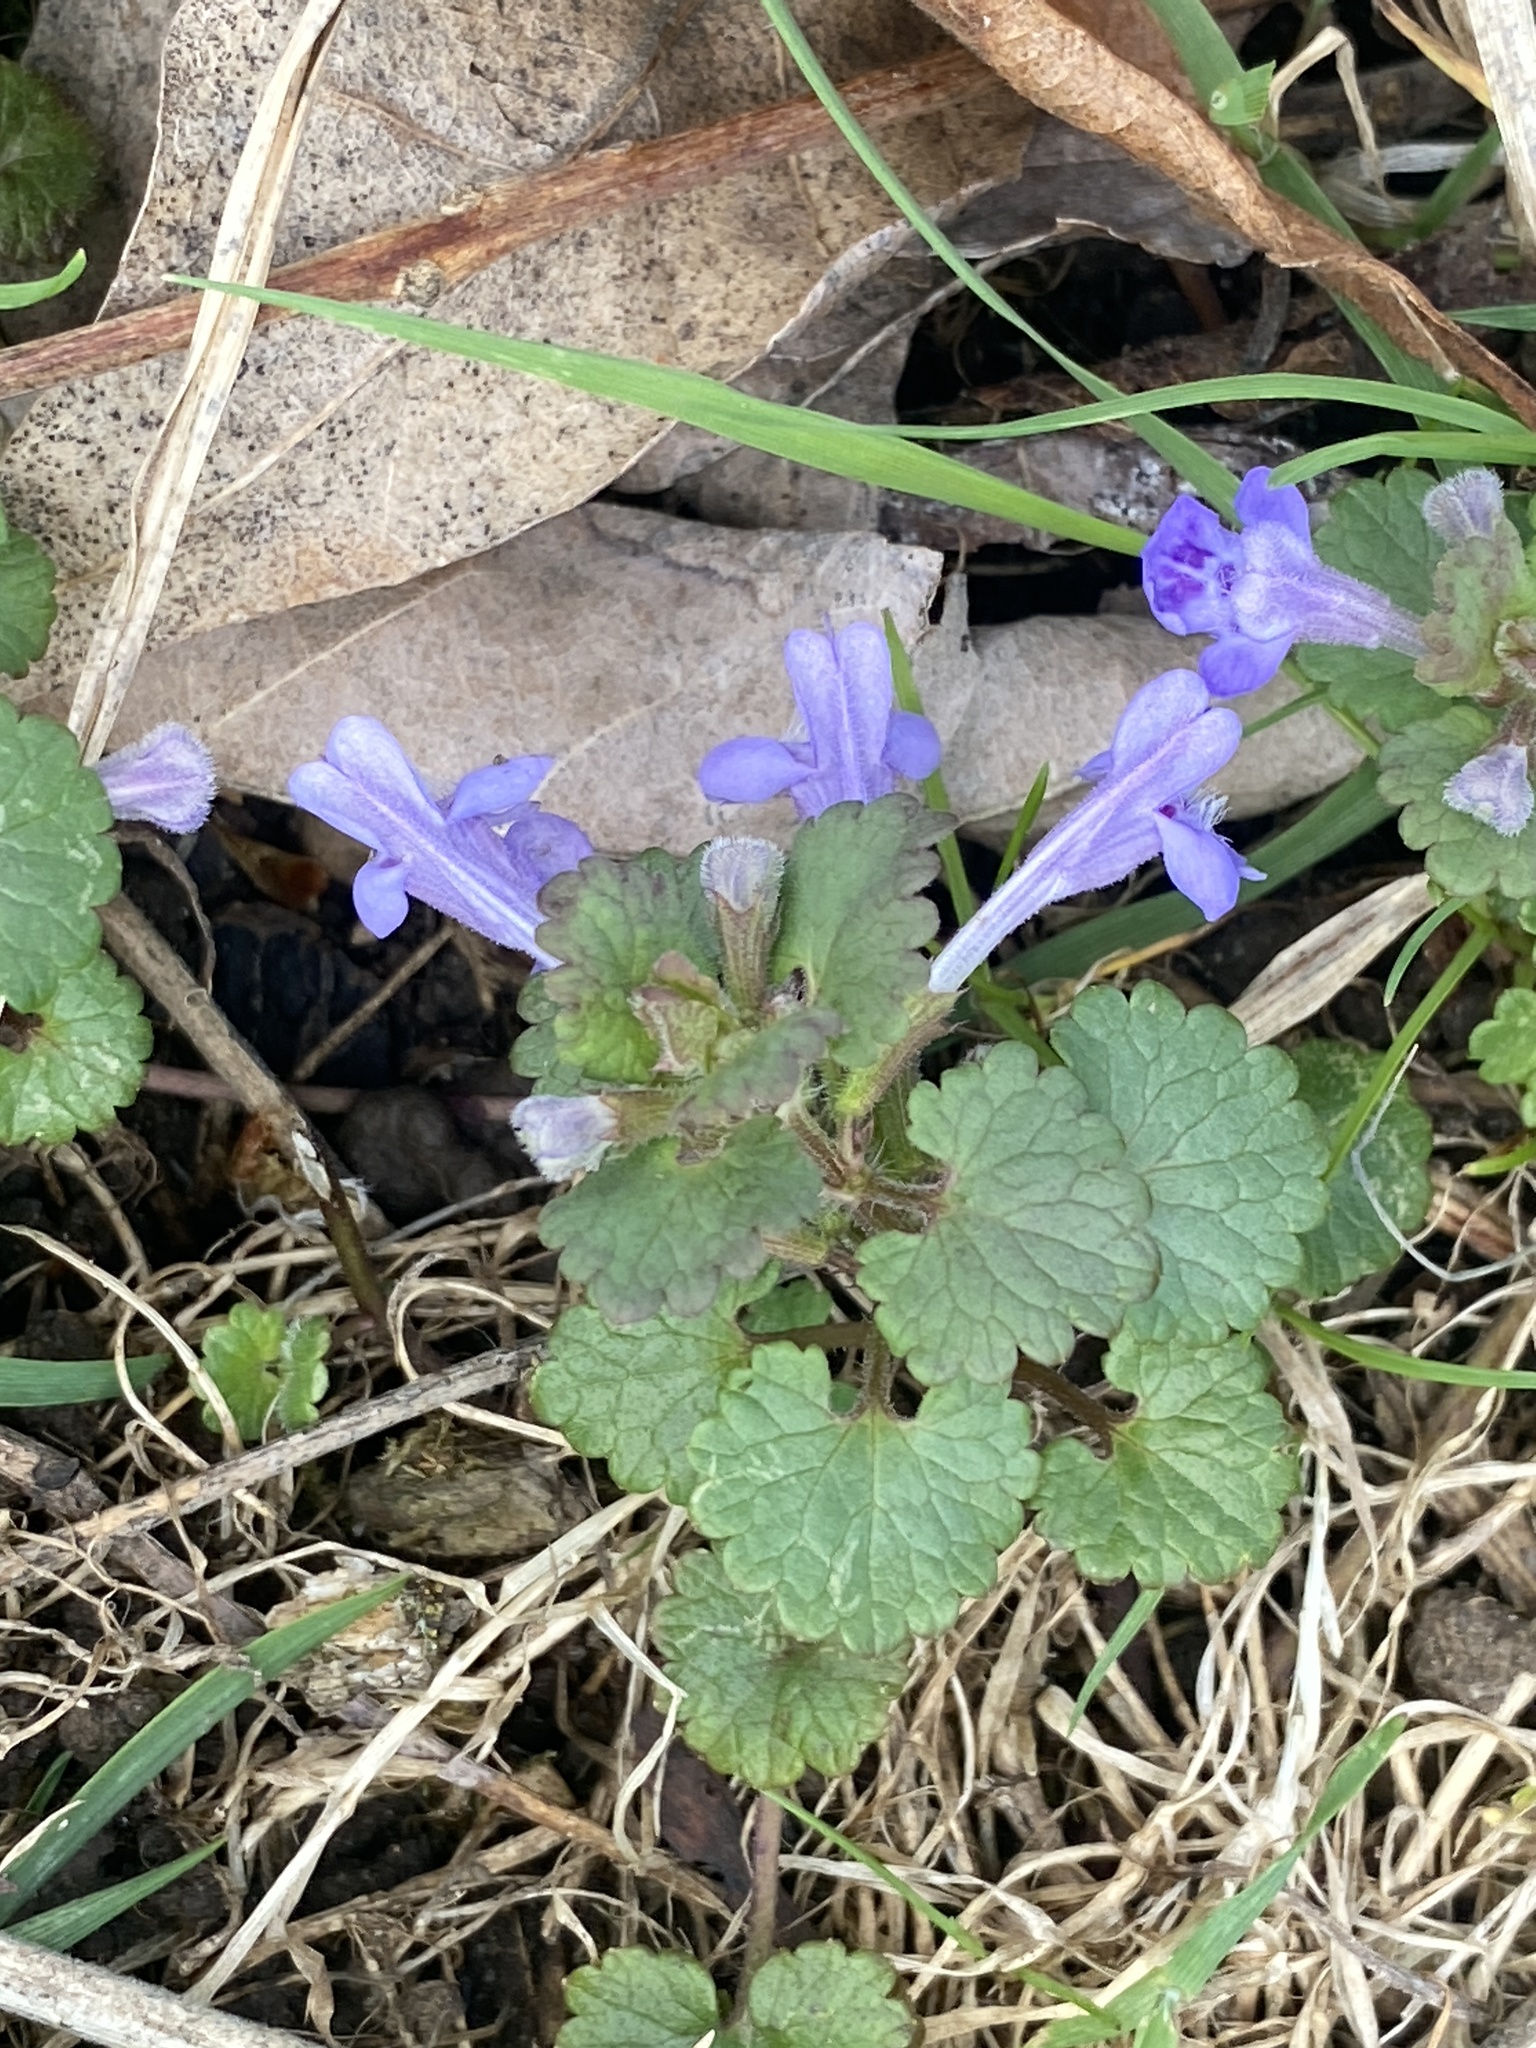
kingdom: Plantae
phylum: Tracheophyta
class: Magnoliopsida
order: Lamiales
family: Lamiaceae
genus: Glechoma
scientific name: Glechoma hederacea
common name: Ground ivy
